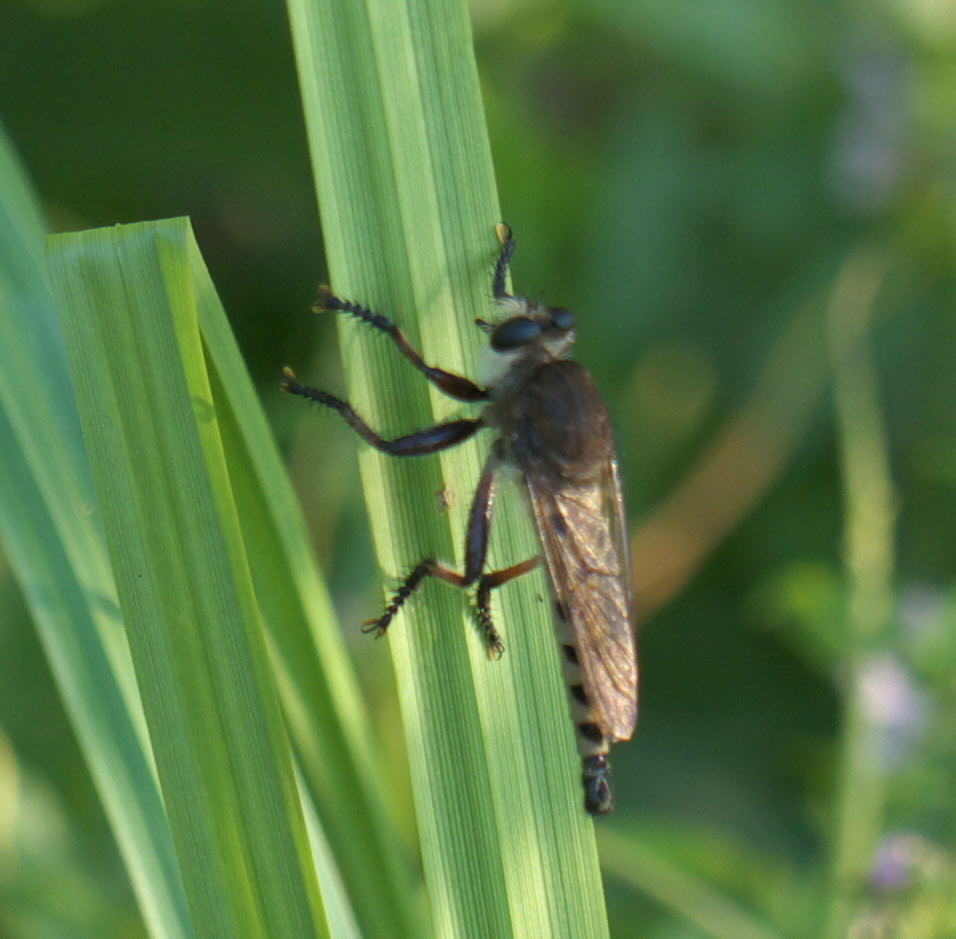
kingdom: Animalia
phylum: Arthropoda
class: Insecta
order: Diptera
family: Asilidae
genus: Promachus
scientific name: Promachus hinei
